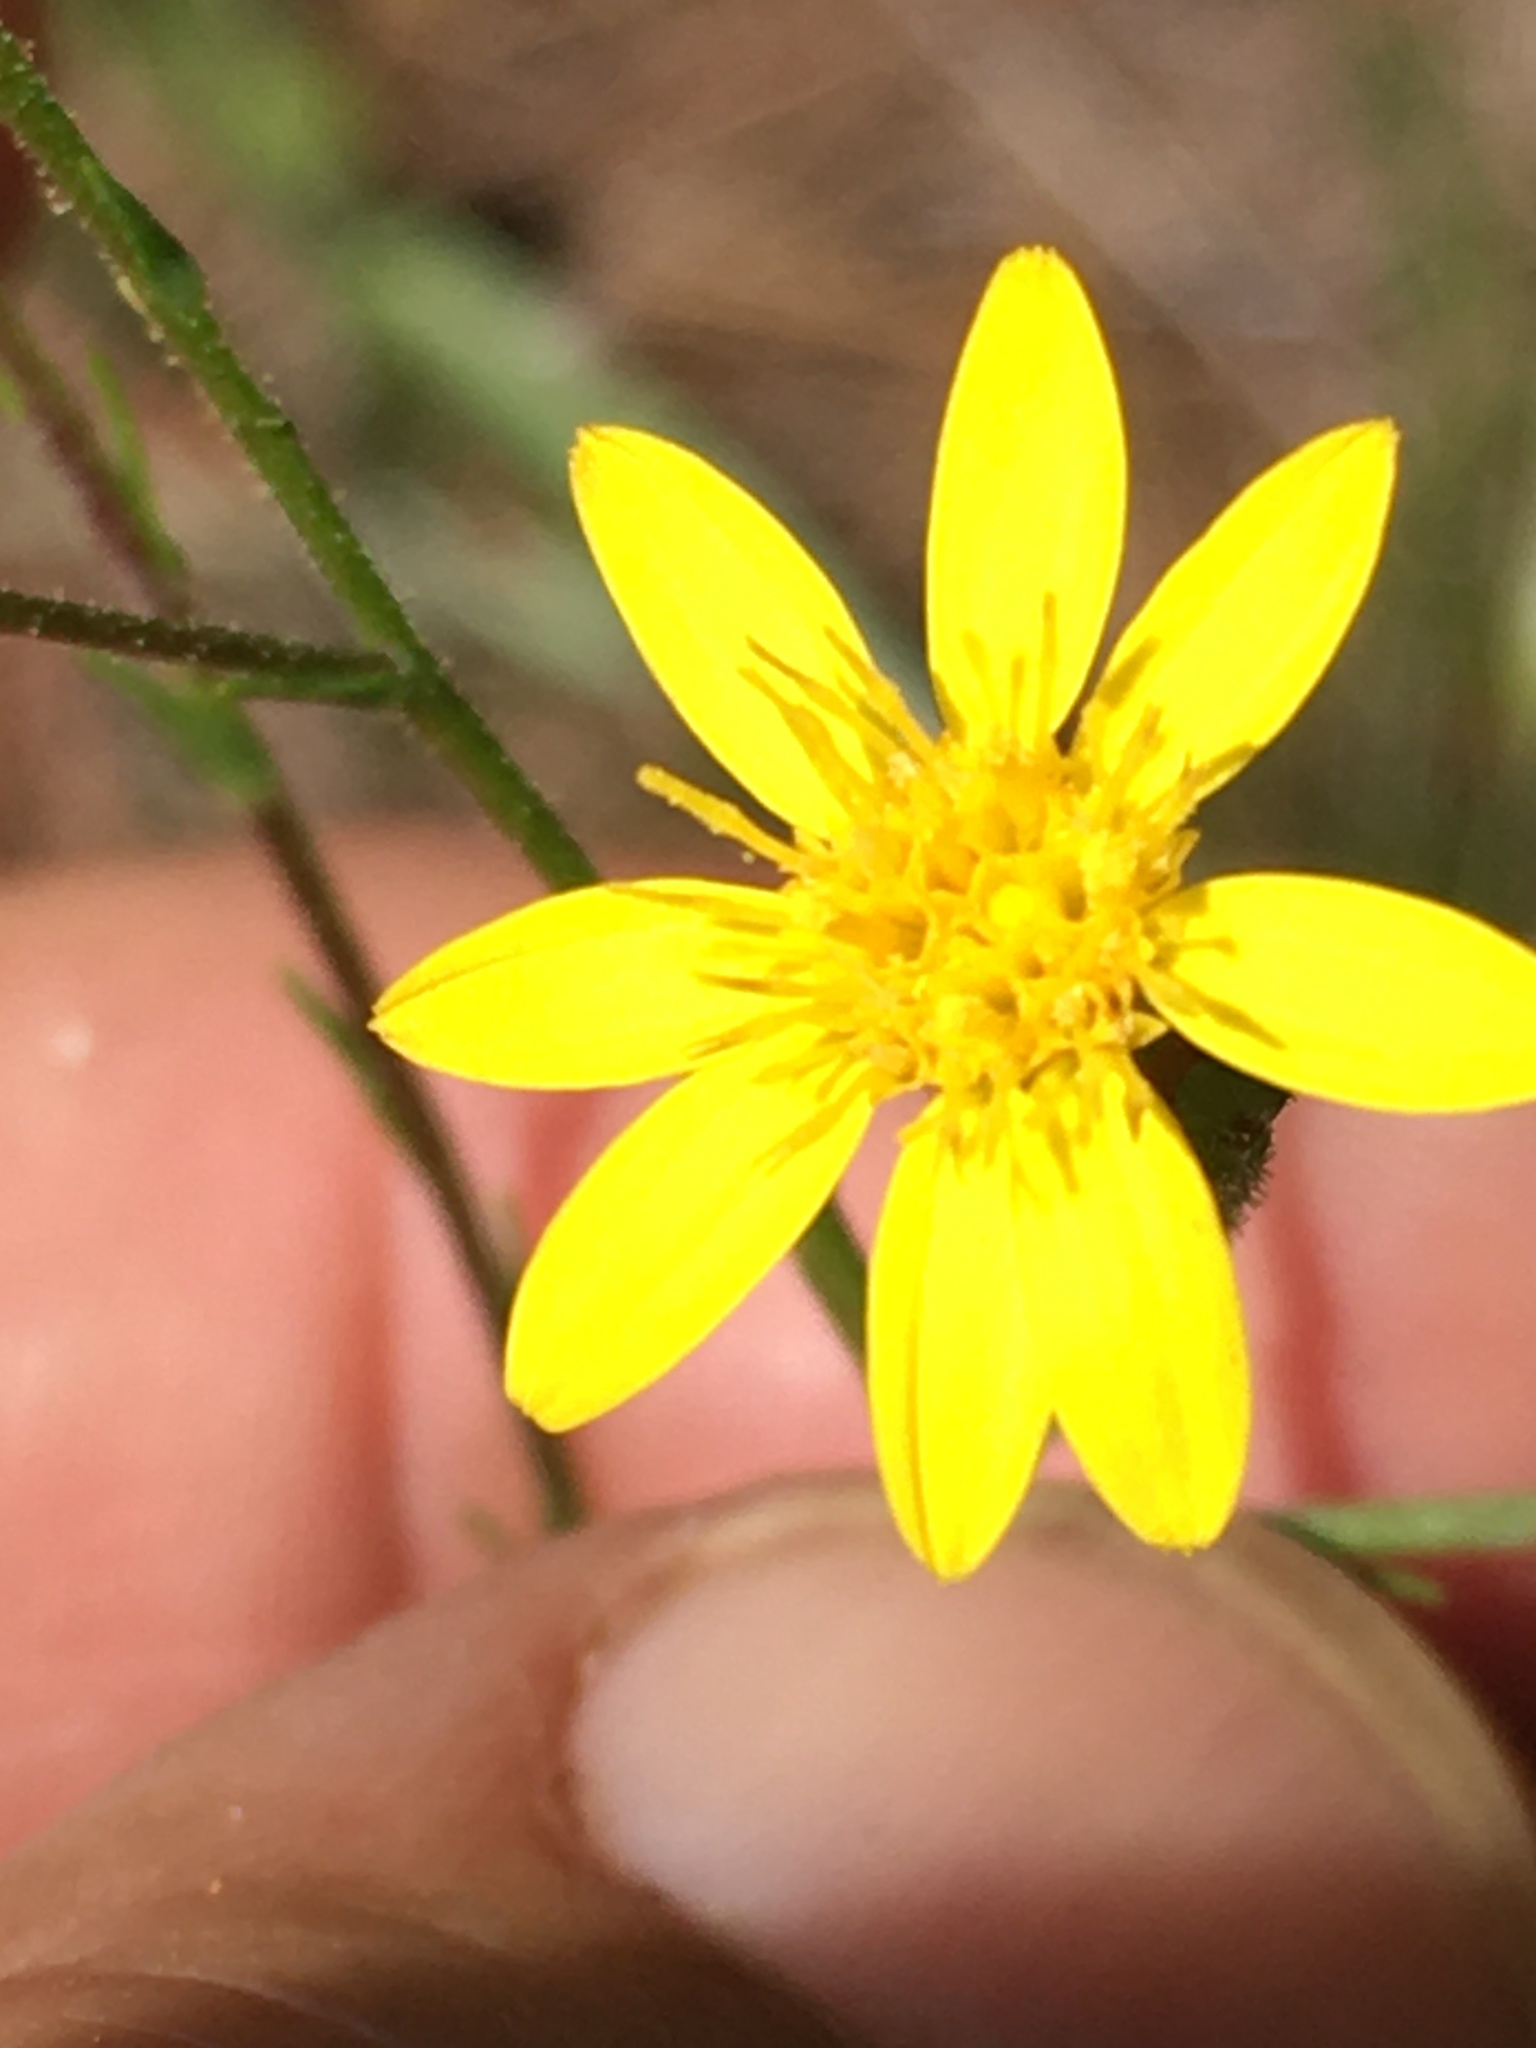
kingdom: Plantae
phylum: Tracheophyta
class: Magnoliopsida
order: Asterales
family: Asteraceae
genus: Pityopsis
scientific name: Pityopsis aspera
